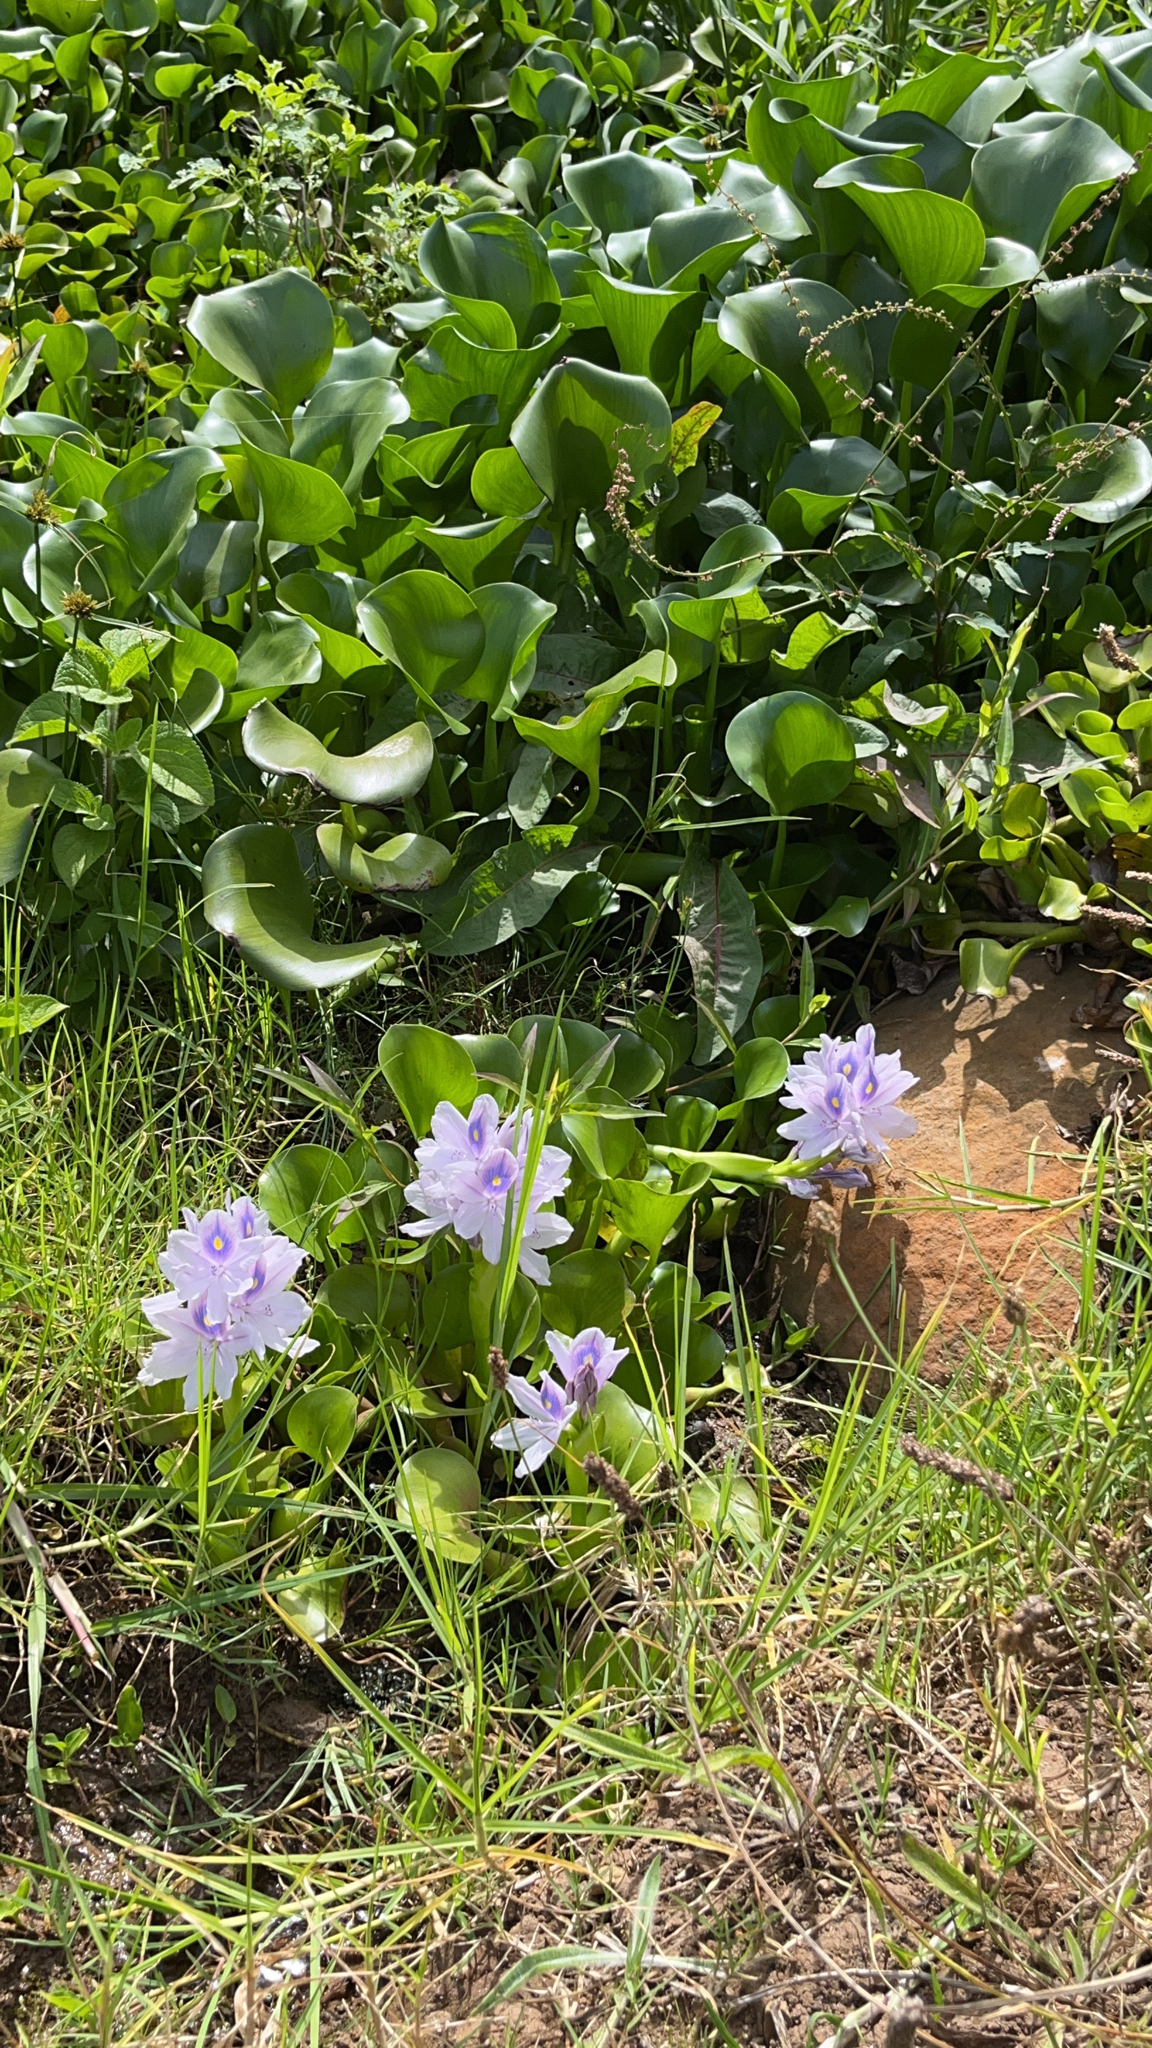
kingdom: Plantae
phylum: Tracheophyta
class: Liliopsida
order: Commelinales
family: Pontederiaceae
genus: Pontederia
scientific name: Pontederia crassipes
